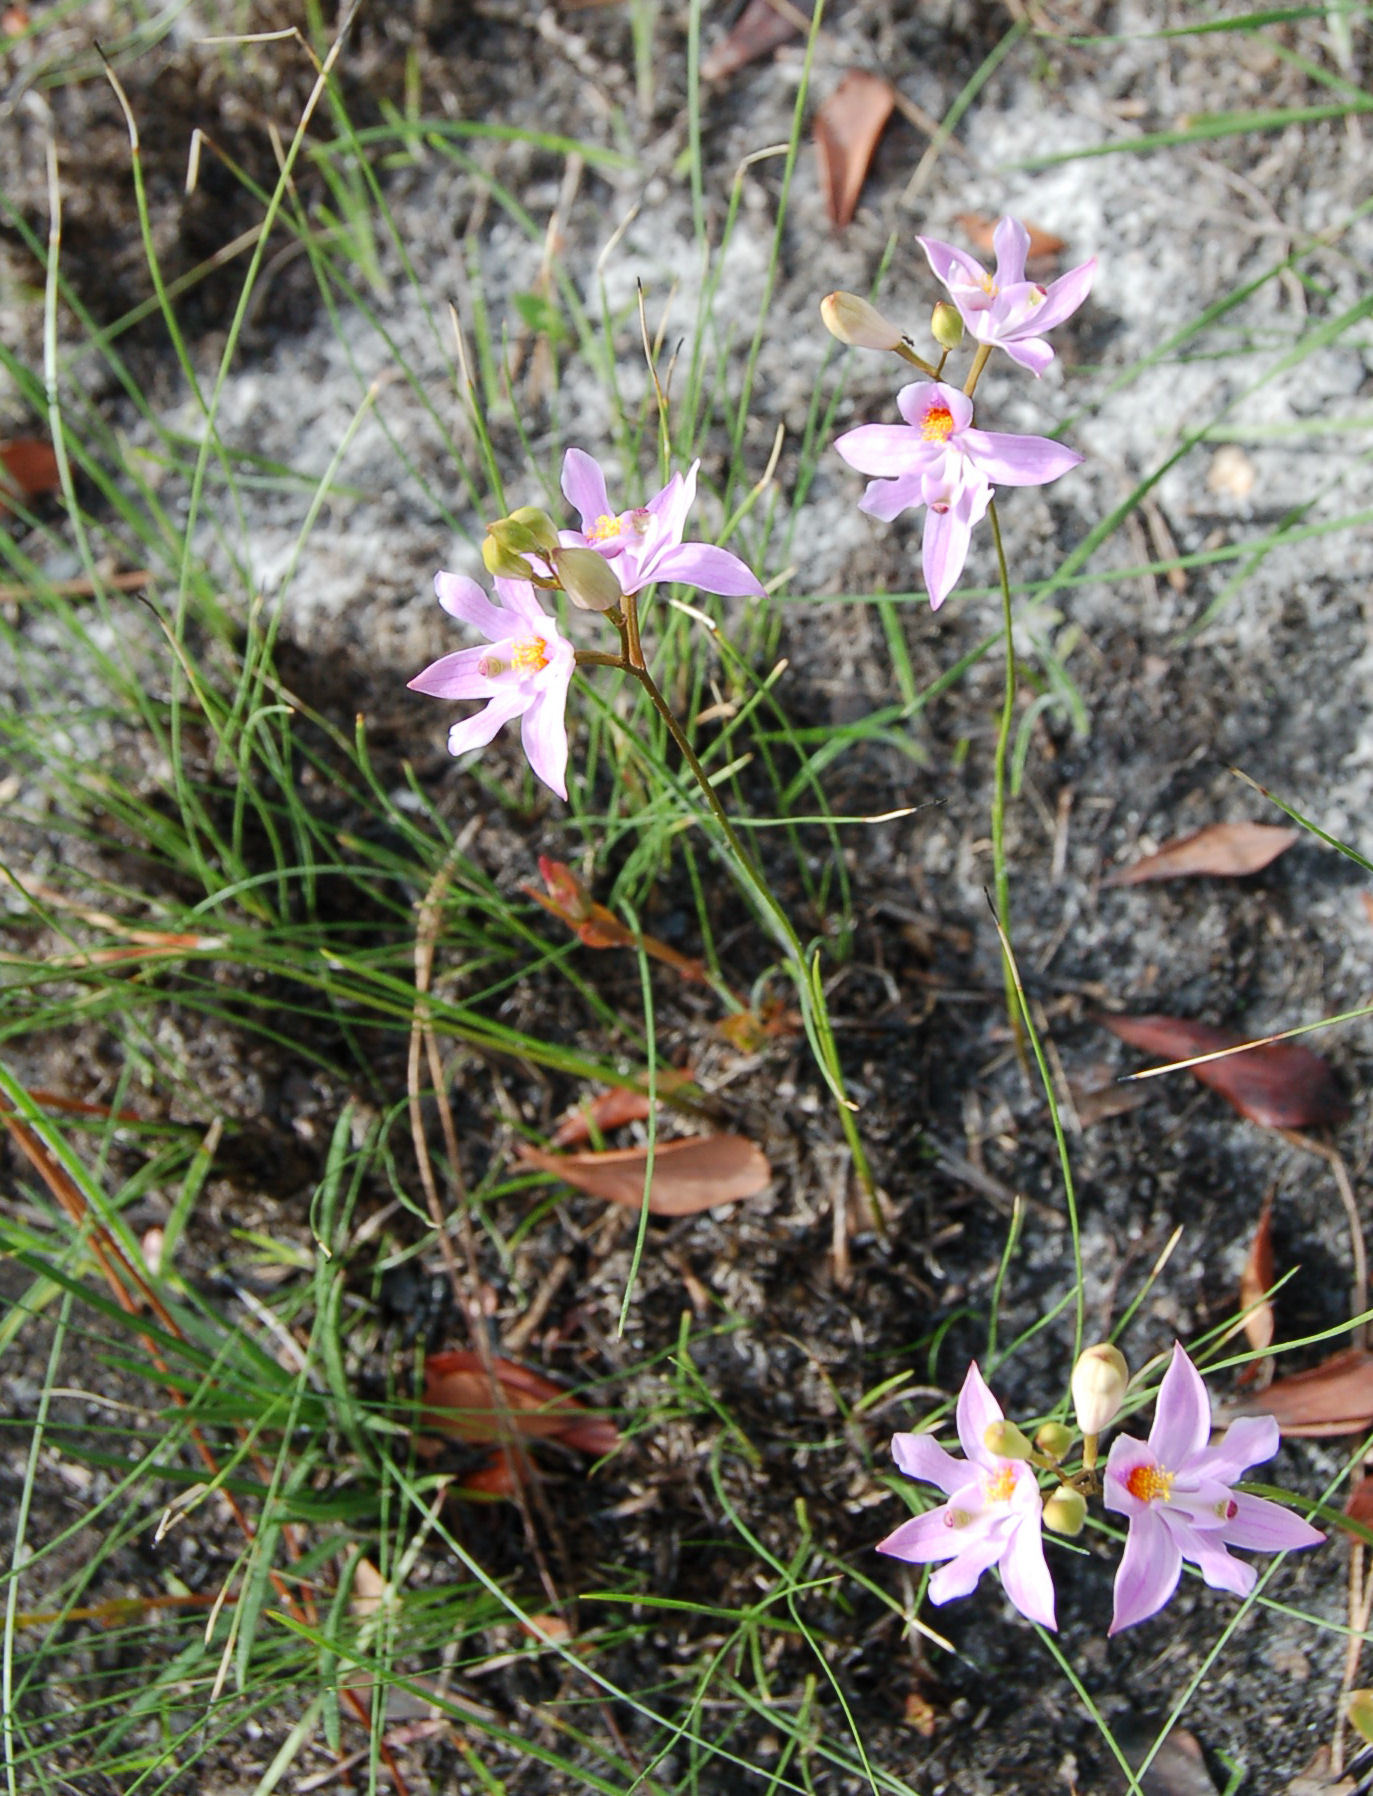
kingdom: Plantae
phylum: Tracheophyta
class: Liliopsida
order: Asparagales
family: Orchidaceae
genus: Calopogon
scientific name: Calopogon barbatus
